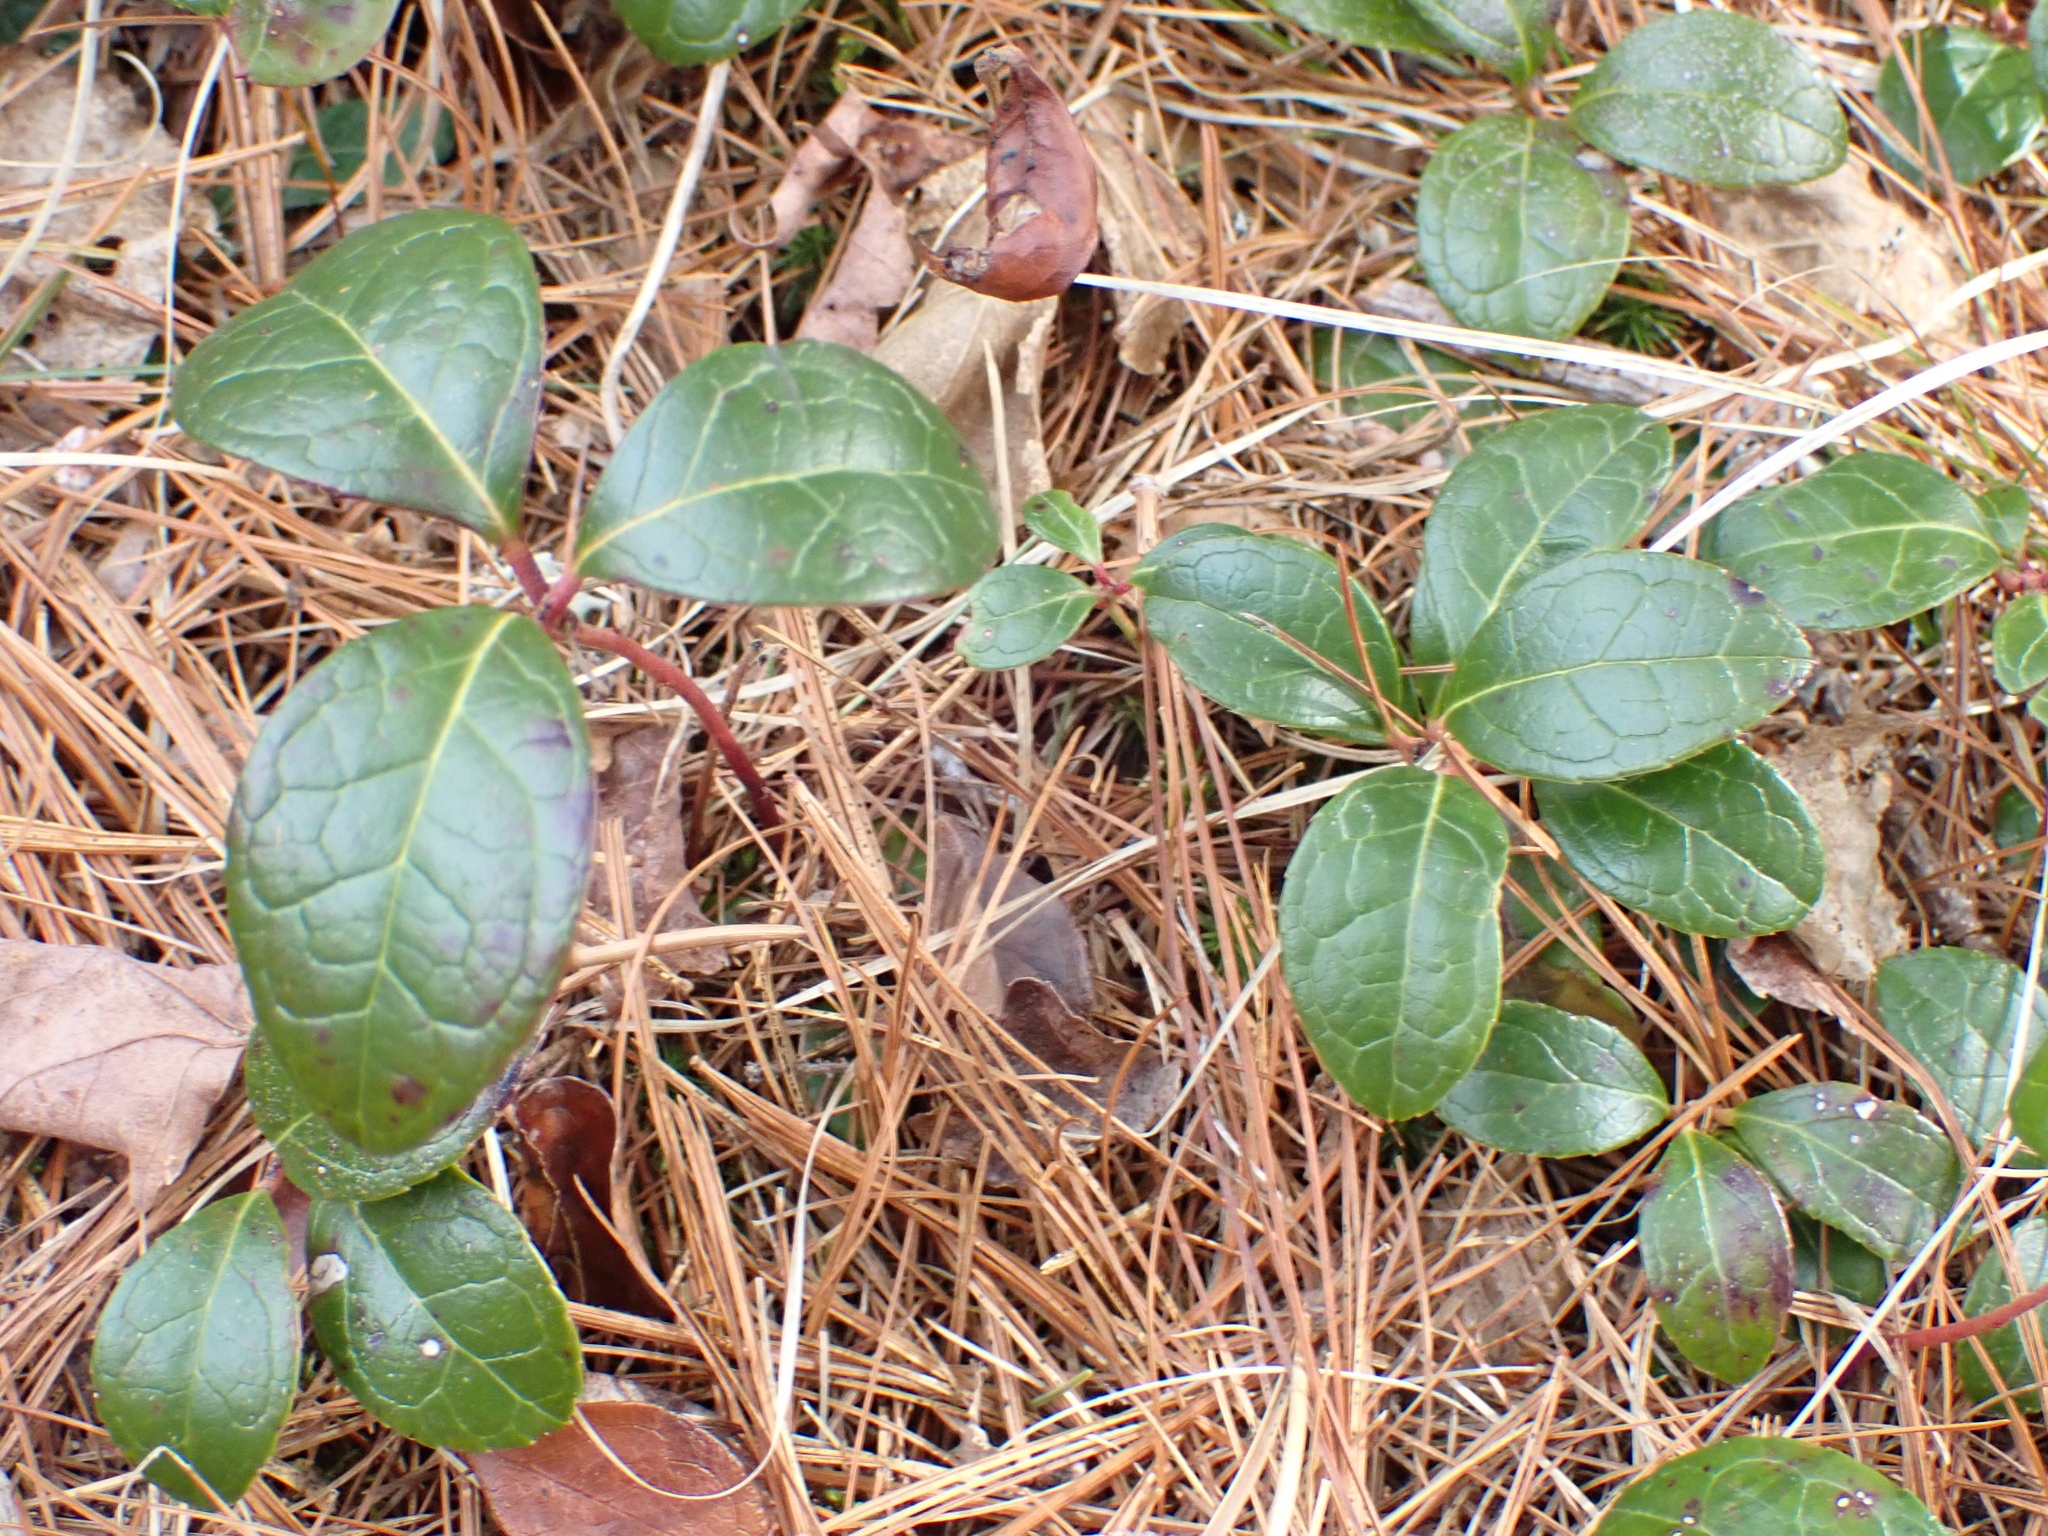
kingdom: Plantae
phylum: Tracheophyta
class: Magnoliopsida
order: Ericales
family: Ericaceae
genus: Gaultheria
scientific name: Gaultheria procumbens
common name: Checkerberry
